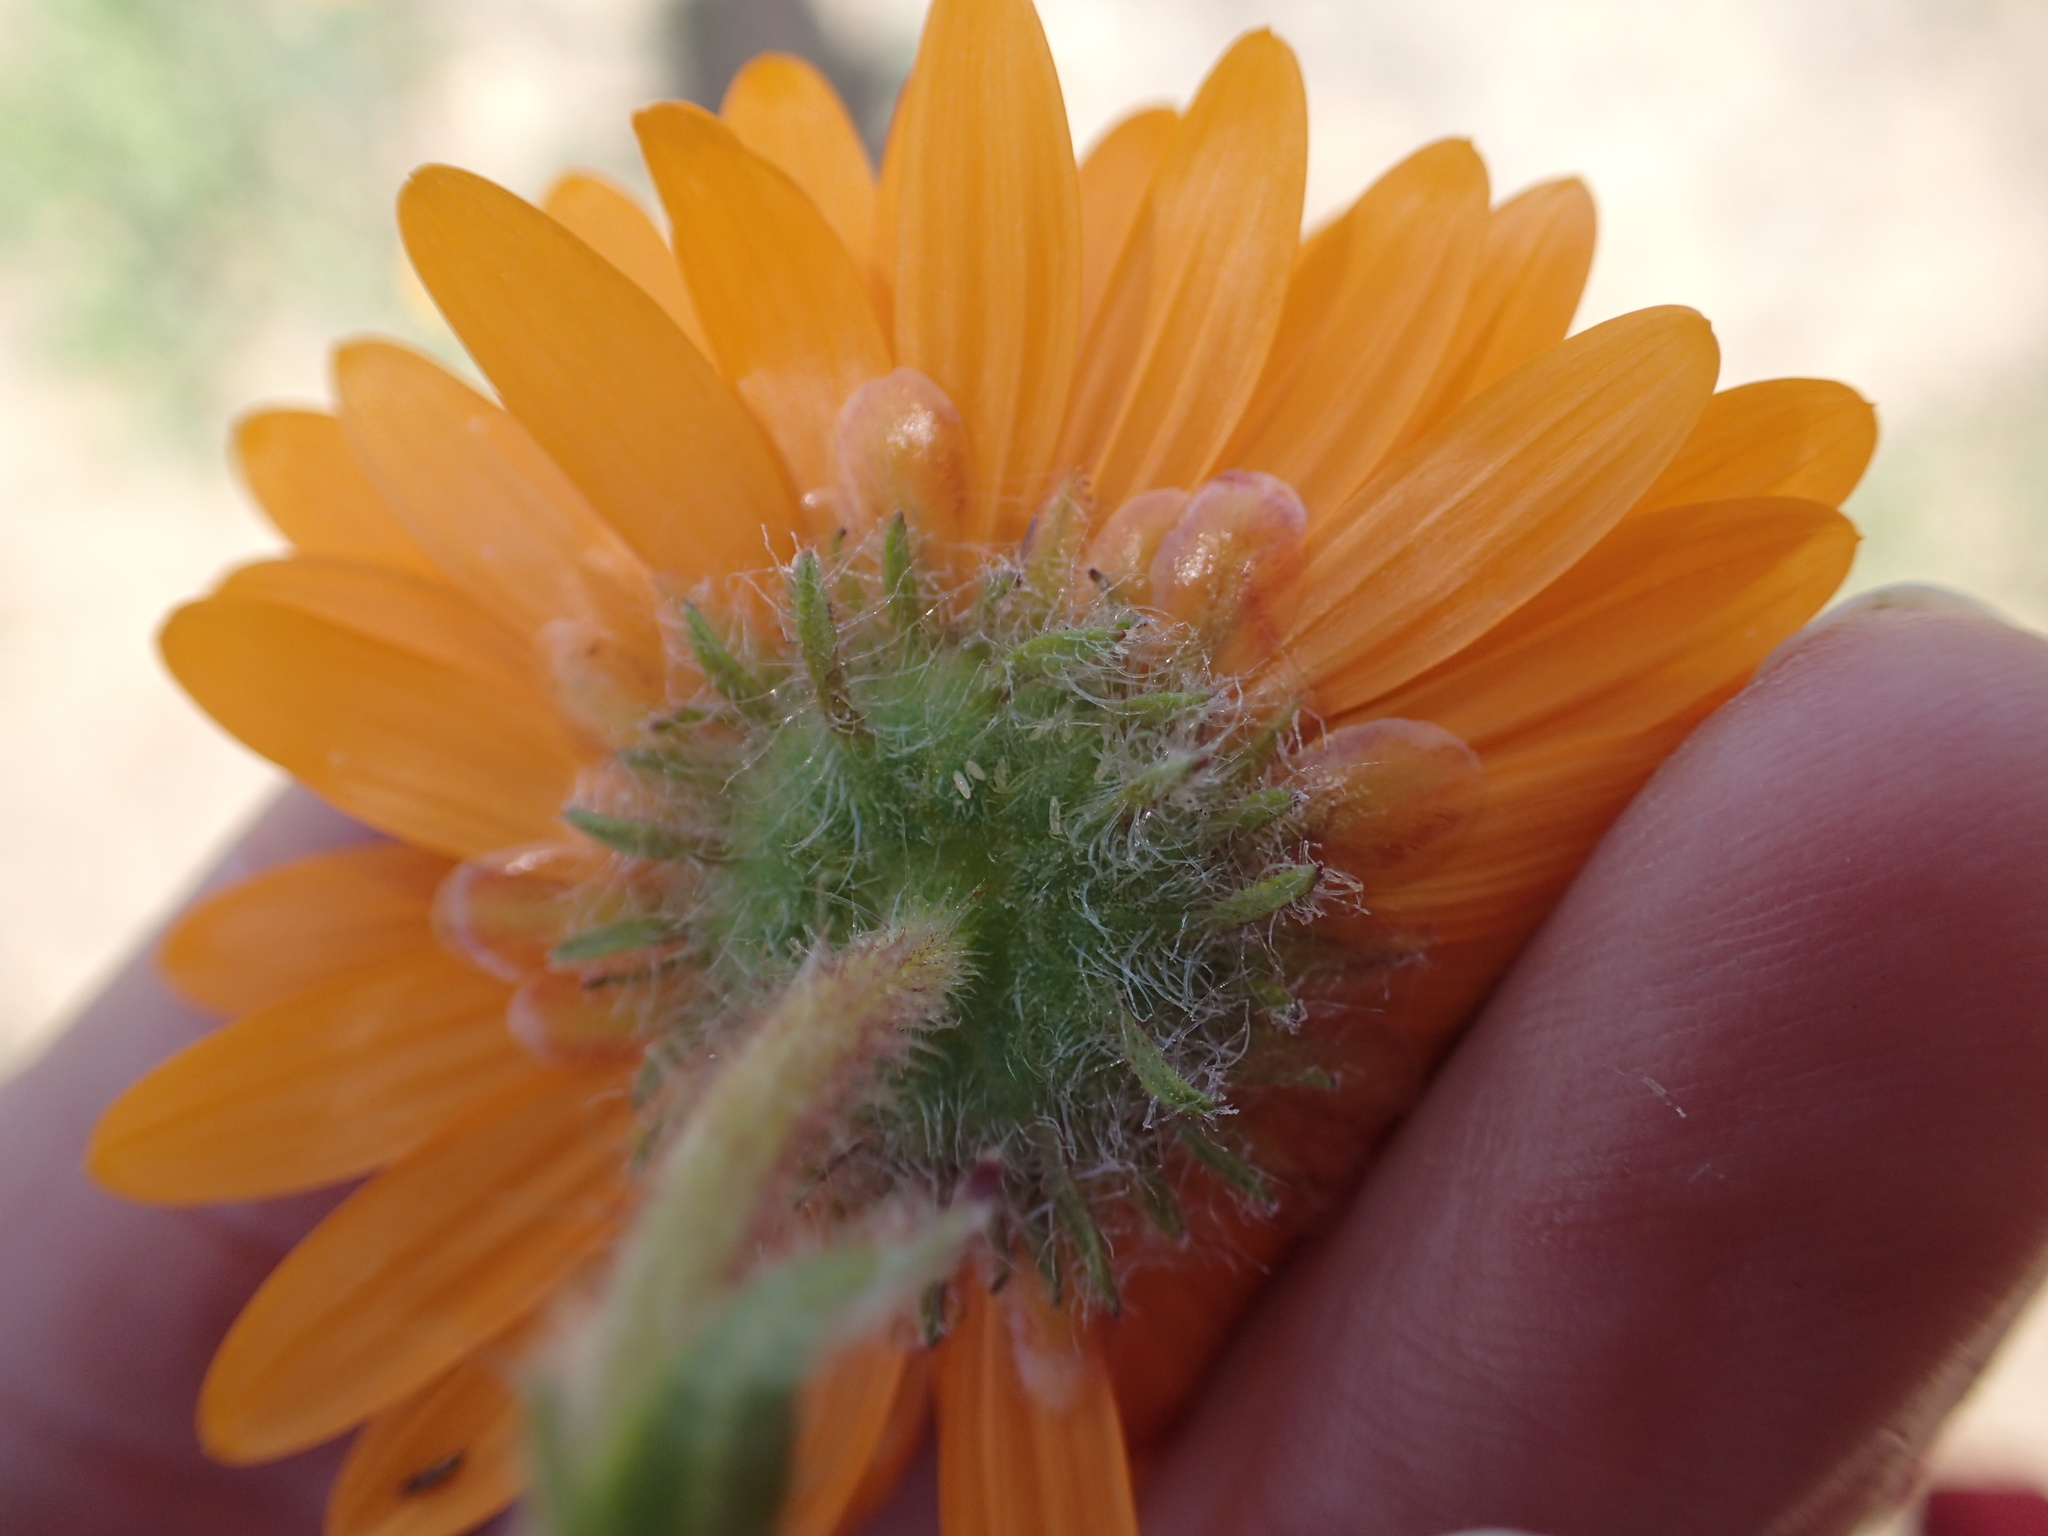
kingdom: Plantae
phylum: Tracheophyta
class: Magnoliopsida
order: Asterales
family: Asteraceae
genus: Arctotis
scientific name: Arctotis fastuosa
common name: Monarch of the veld
